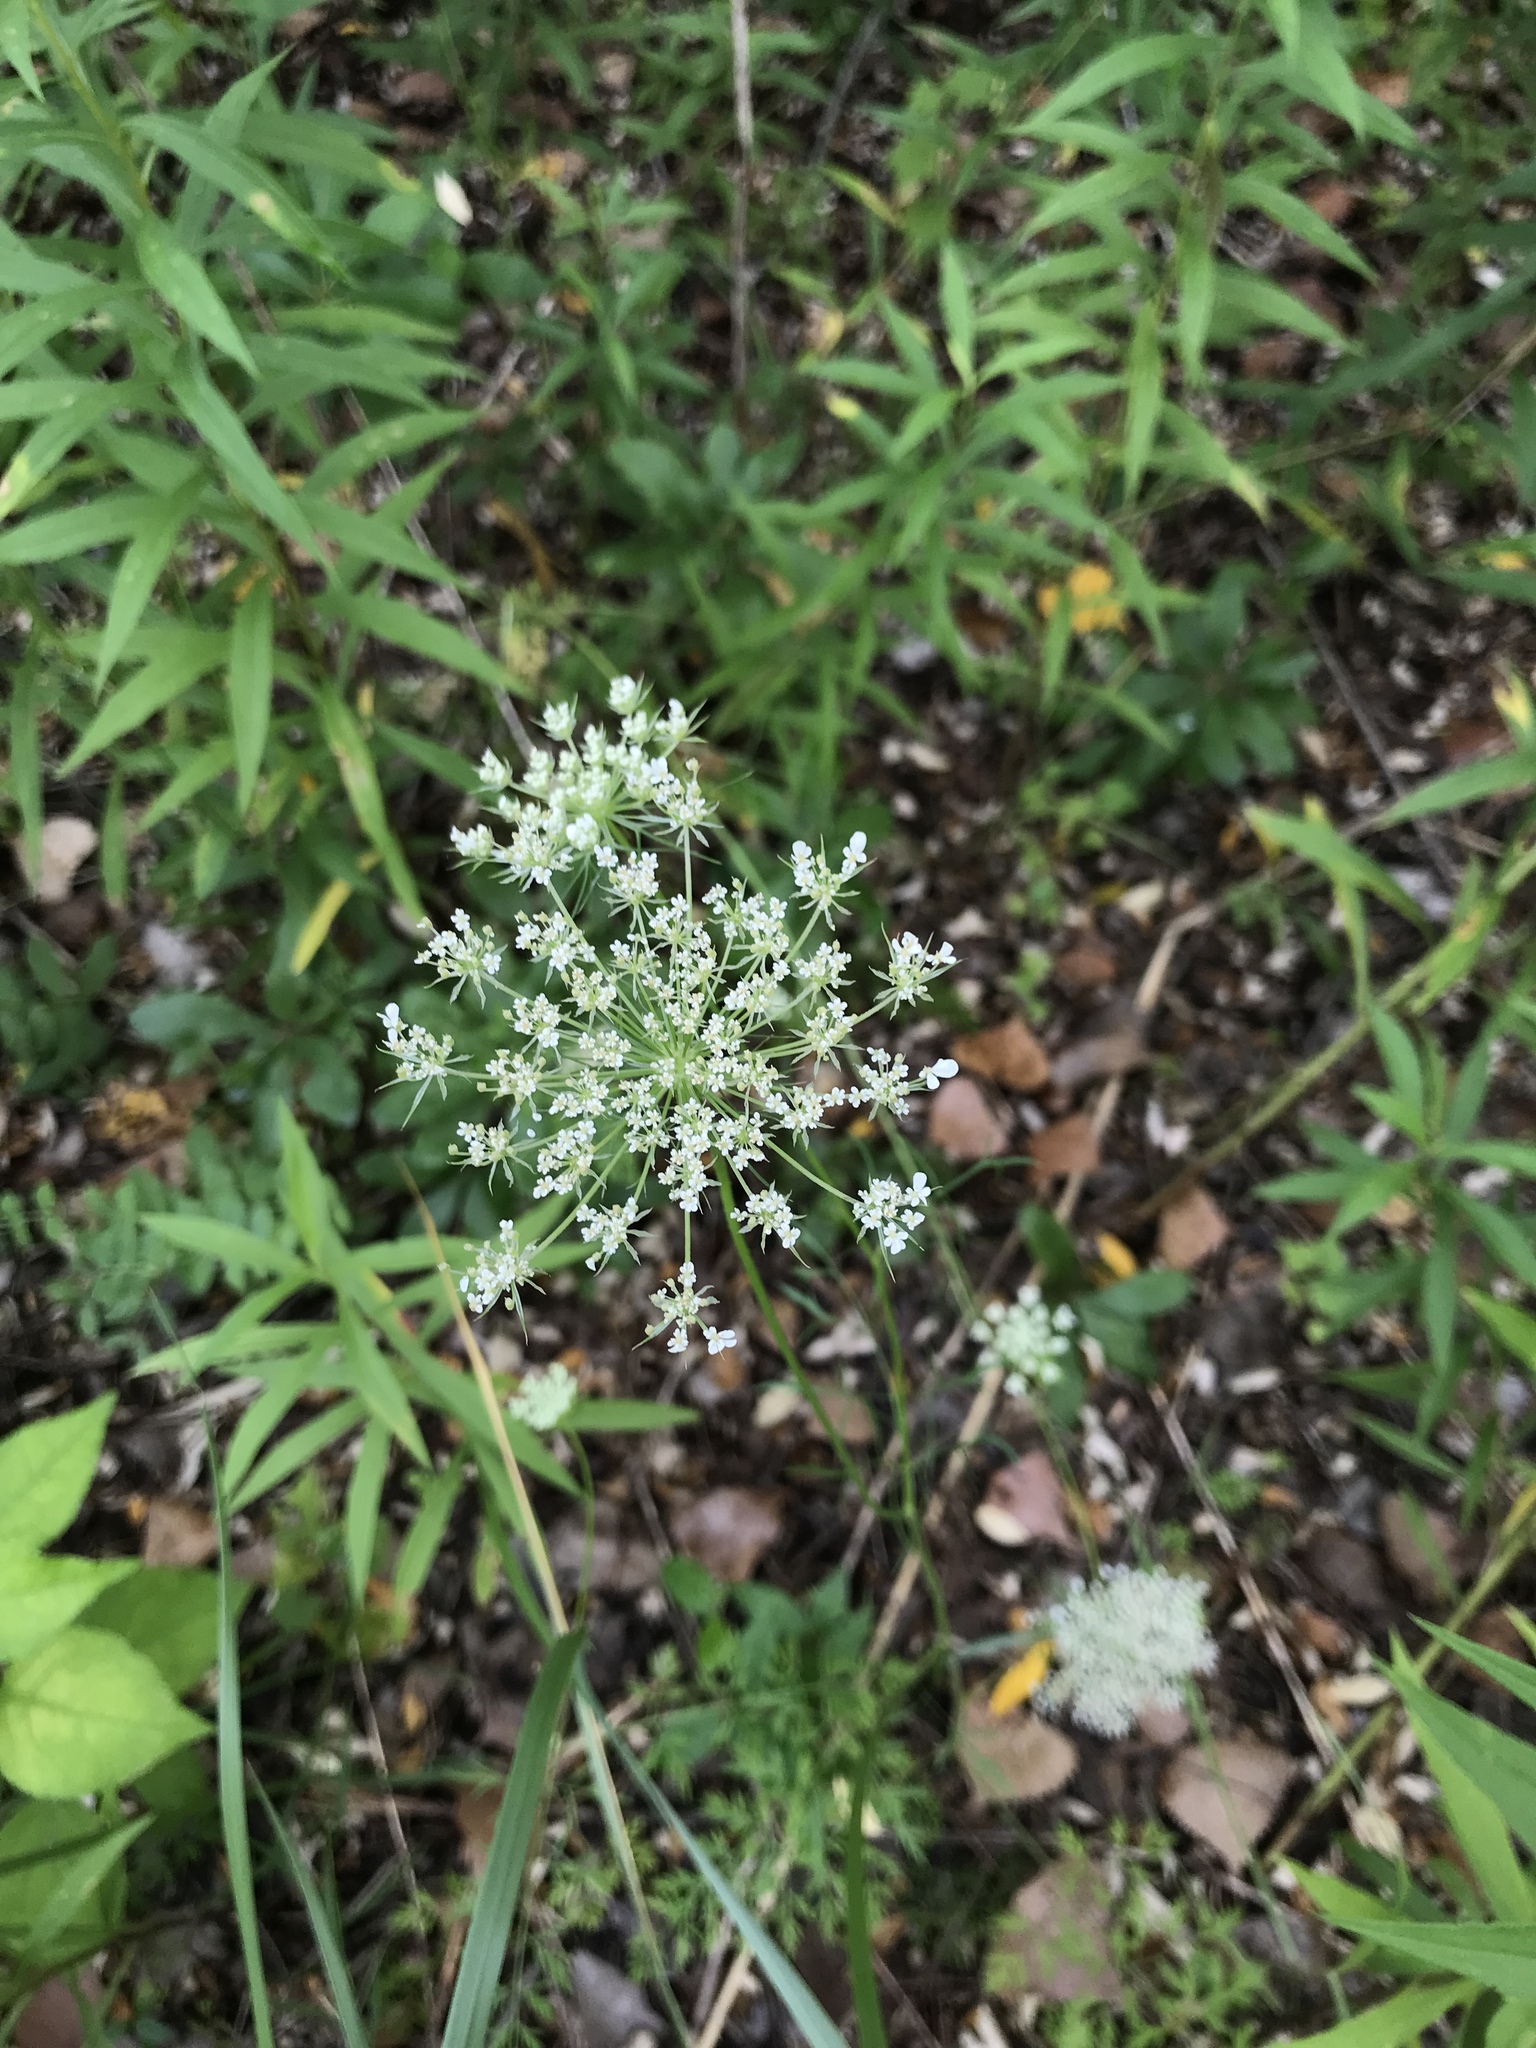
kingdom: Plantae
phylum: Tracheophyta
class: Magnoliopsida
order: Apiales
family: Apiaceae
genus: Daucus
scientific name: Daucus carota
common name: Wild carrot
